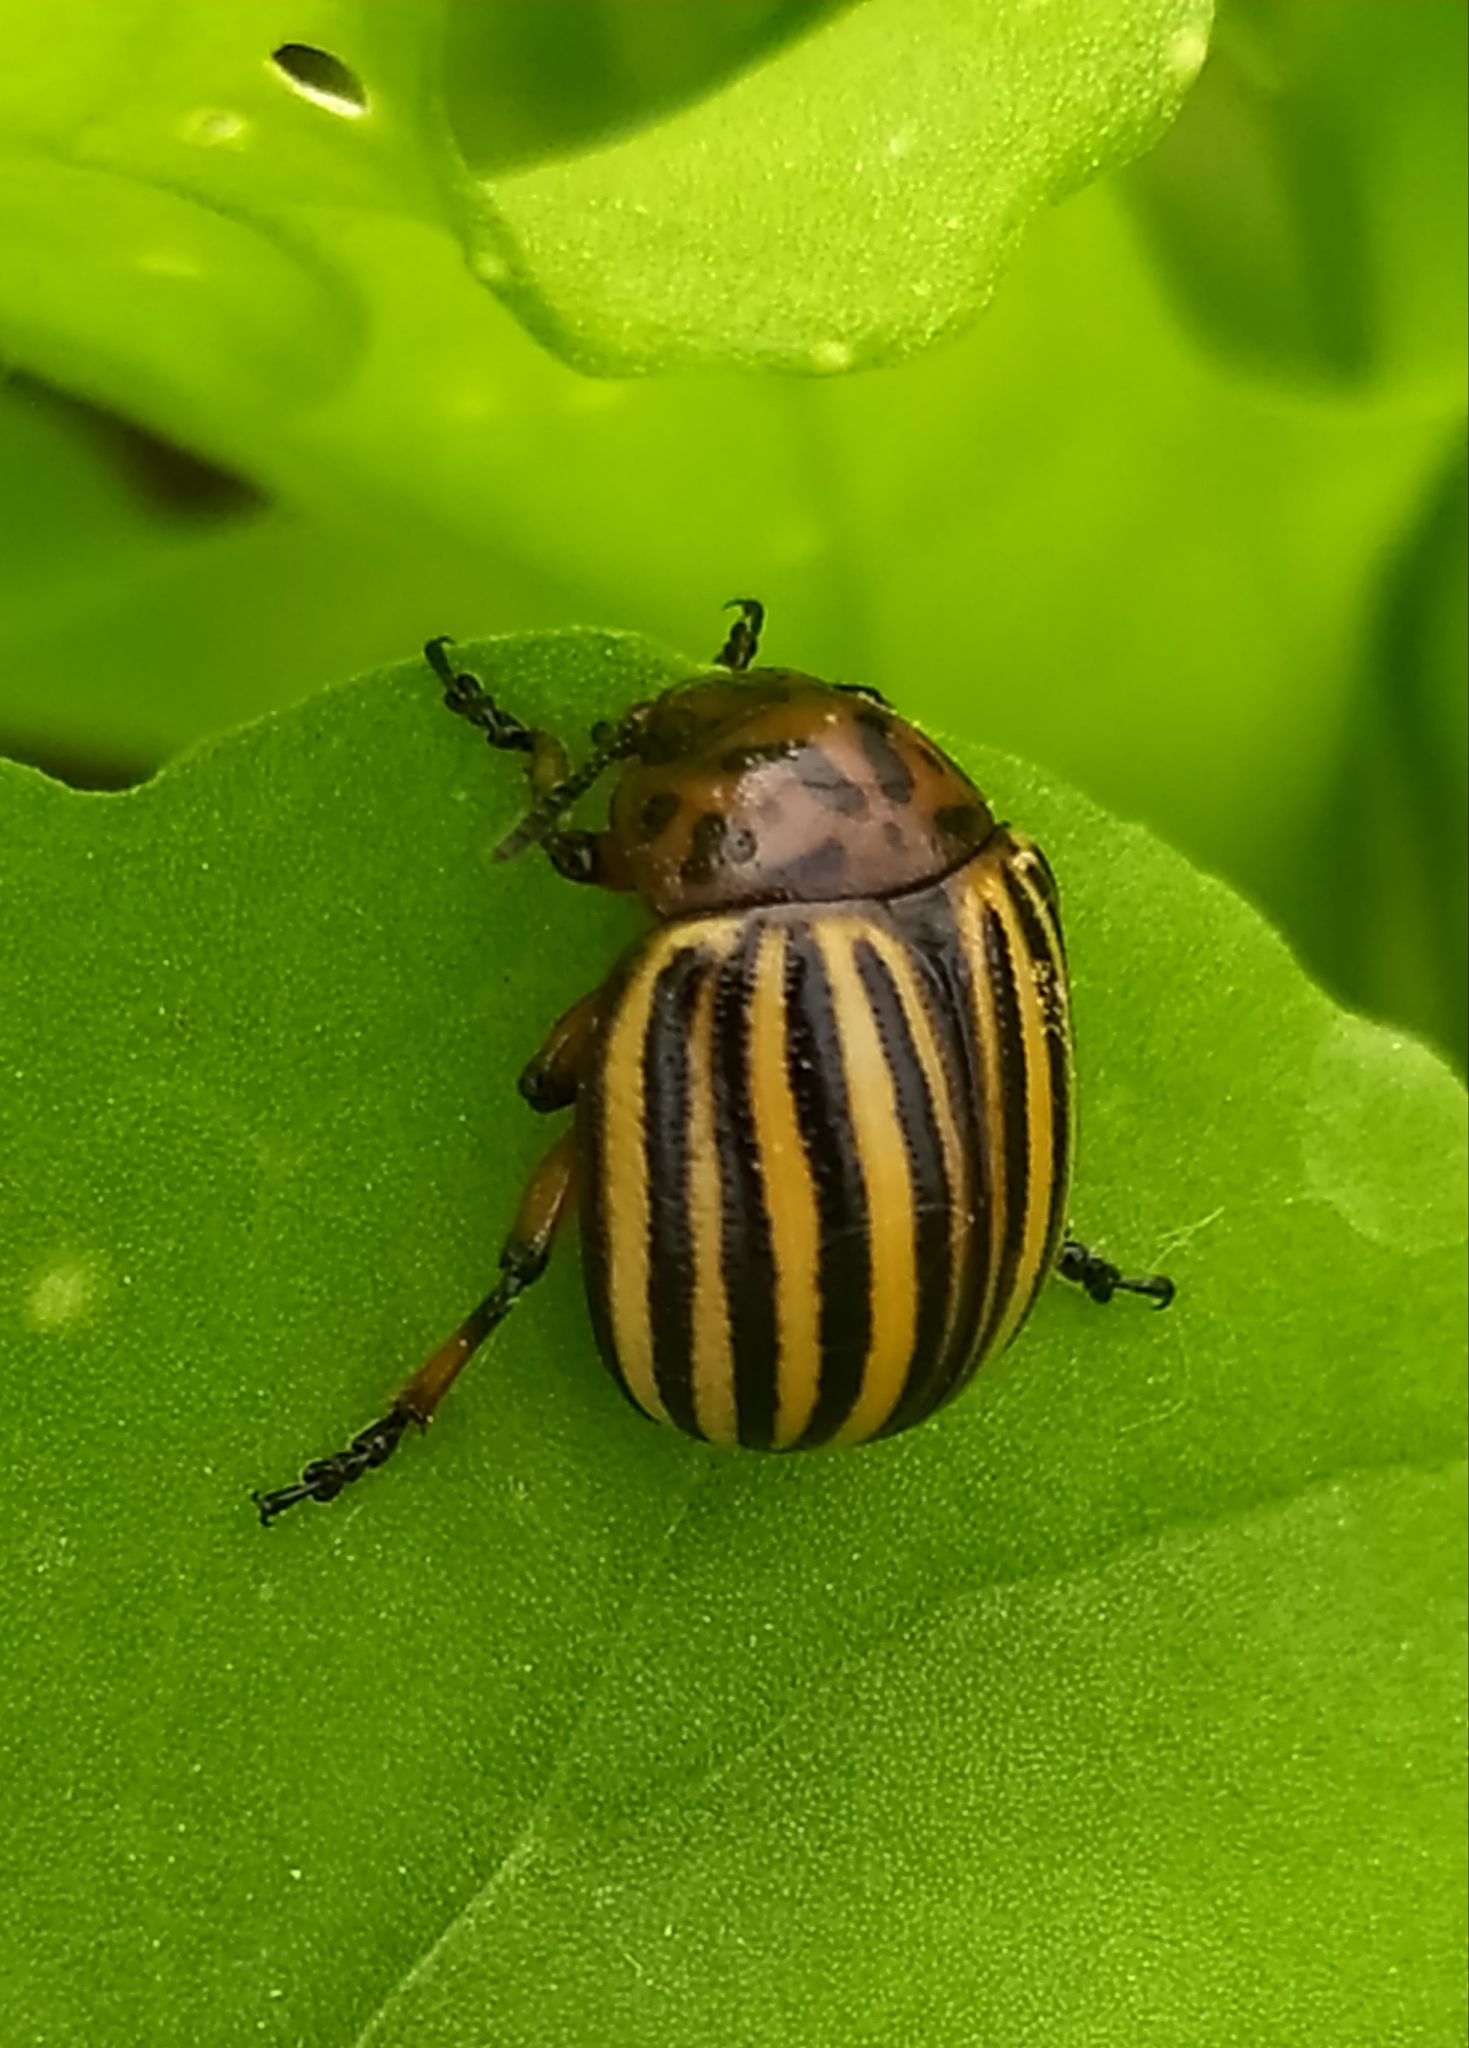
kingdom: Animalia
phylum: Arthropoda
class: Insecta
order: Coleoptera
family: Chrysomelidae
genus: Leptinotarsa
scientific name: Leptinotarsa decemlineata
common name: Colorado potato beetle
